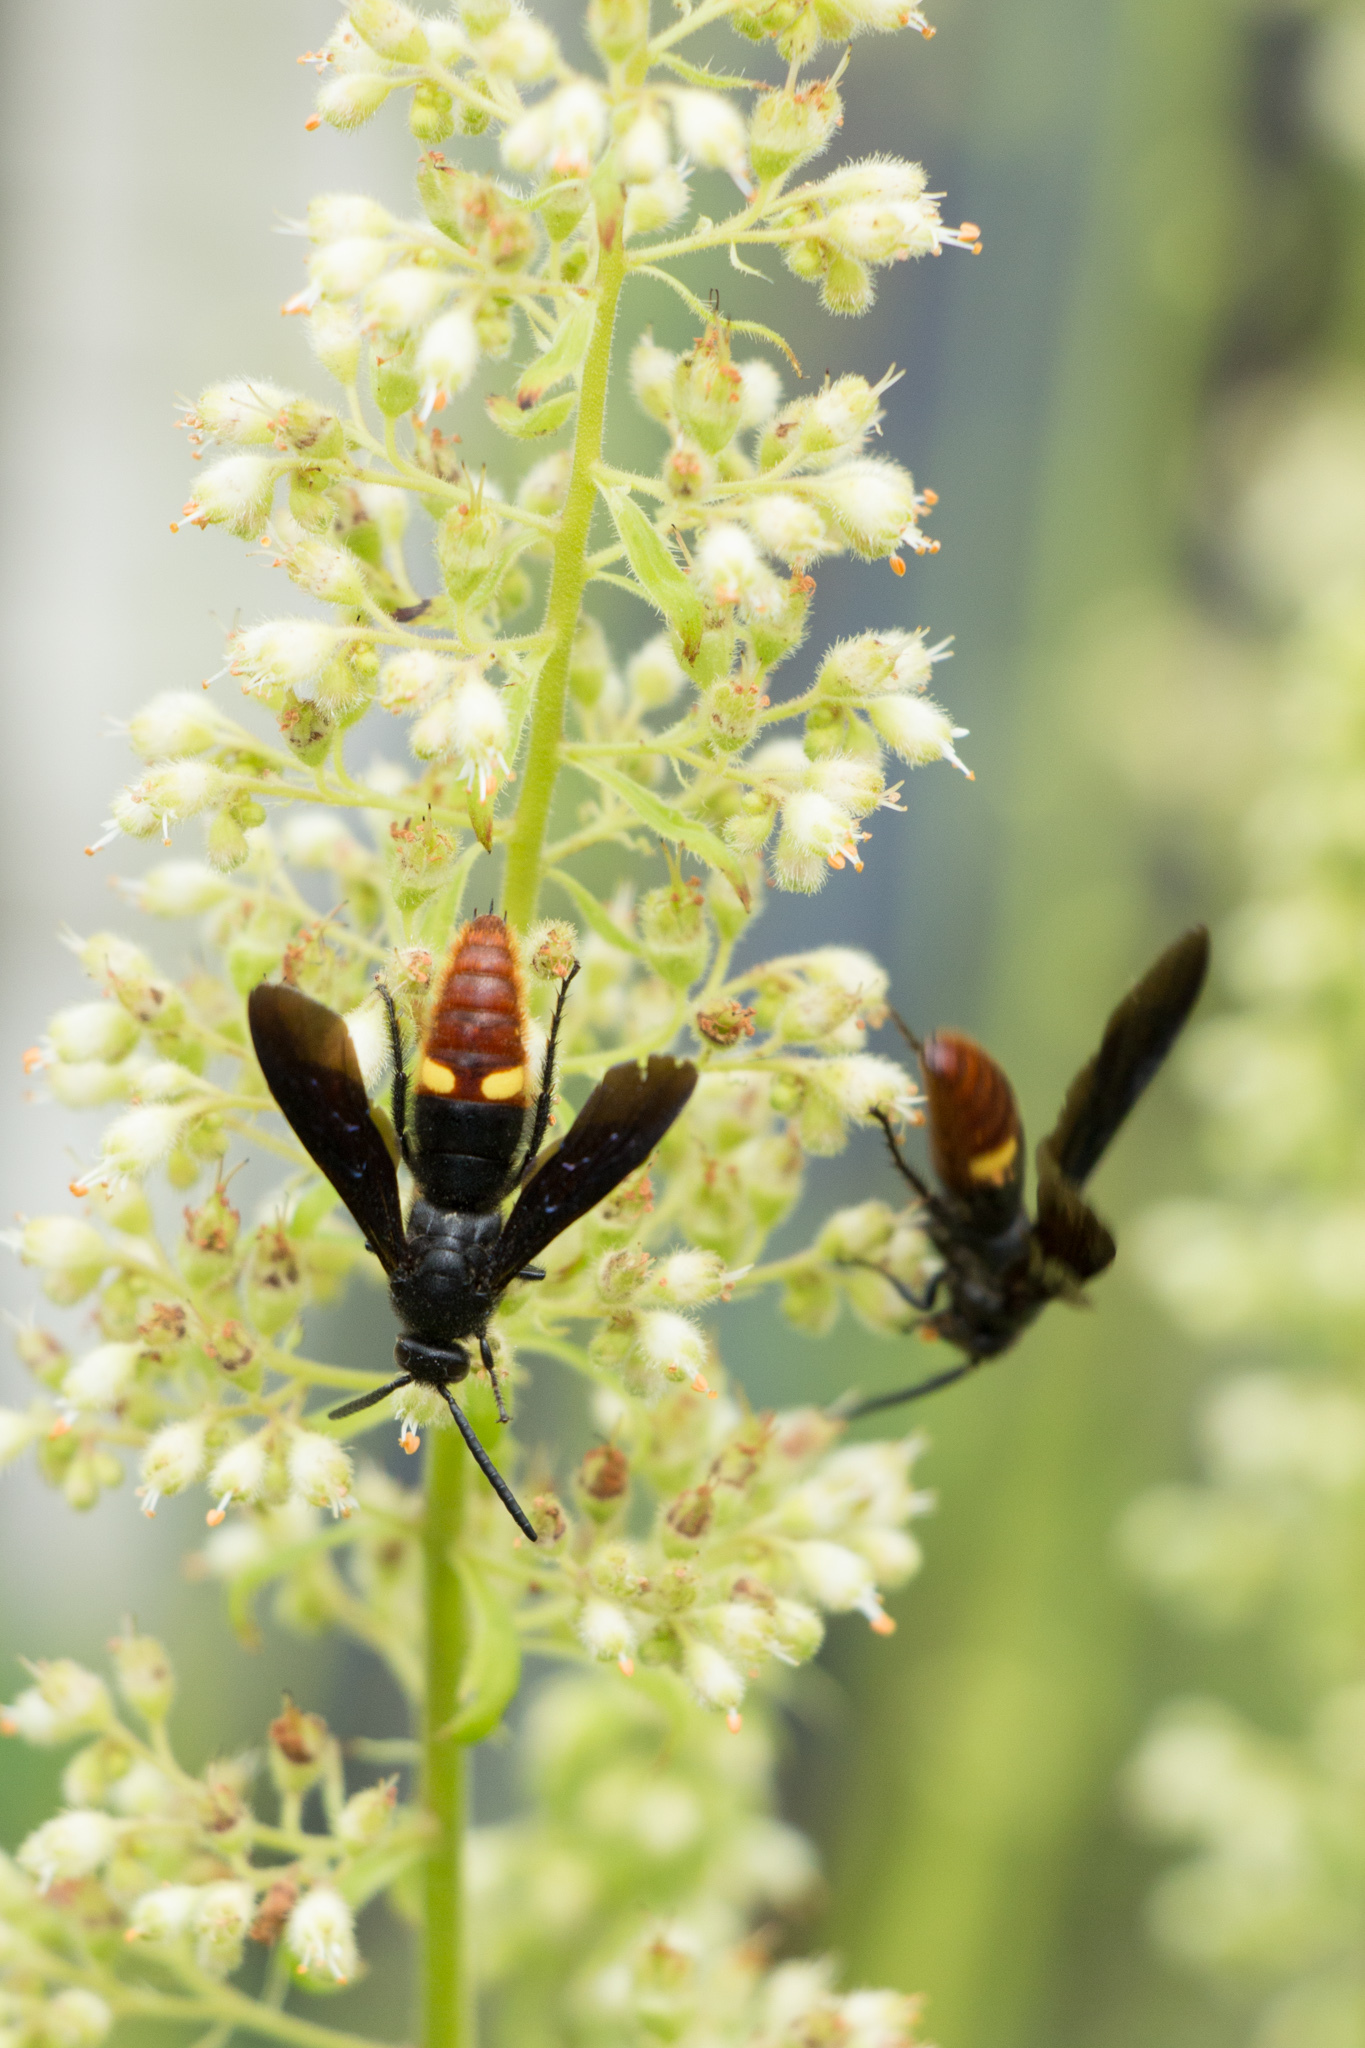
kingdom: Animalia
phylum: Arthropoda
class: Insecta
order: Hymenoptera
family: Scoliidae
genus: Scolia
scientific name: Scolia dubia
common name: Blue-winged scoliid wasp
